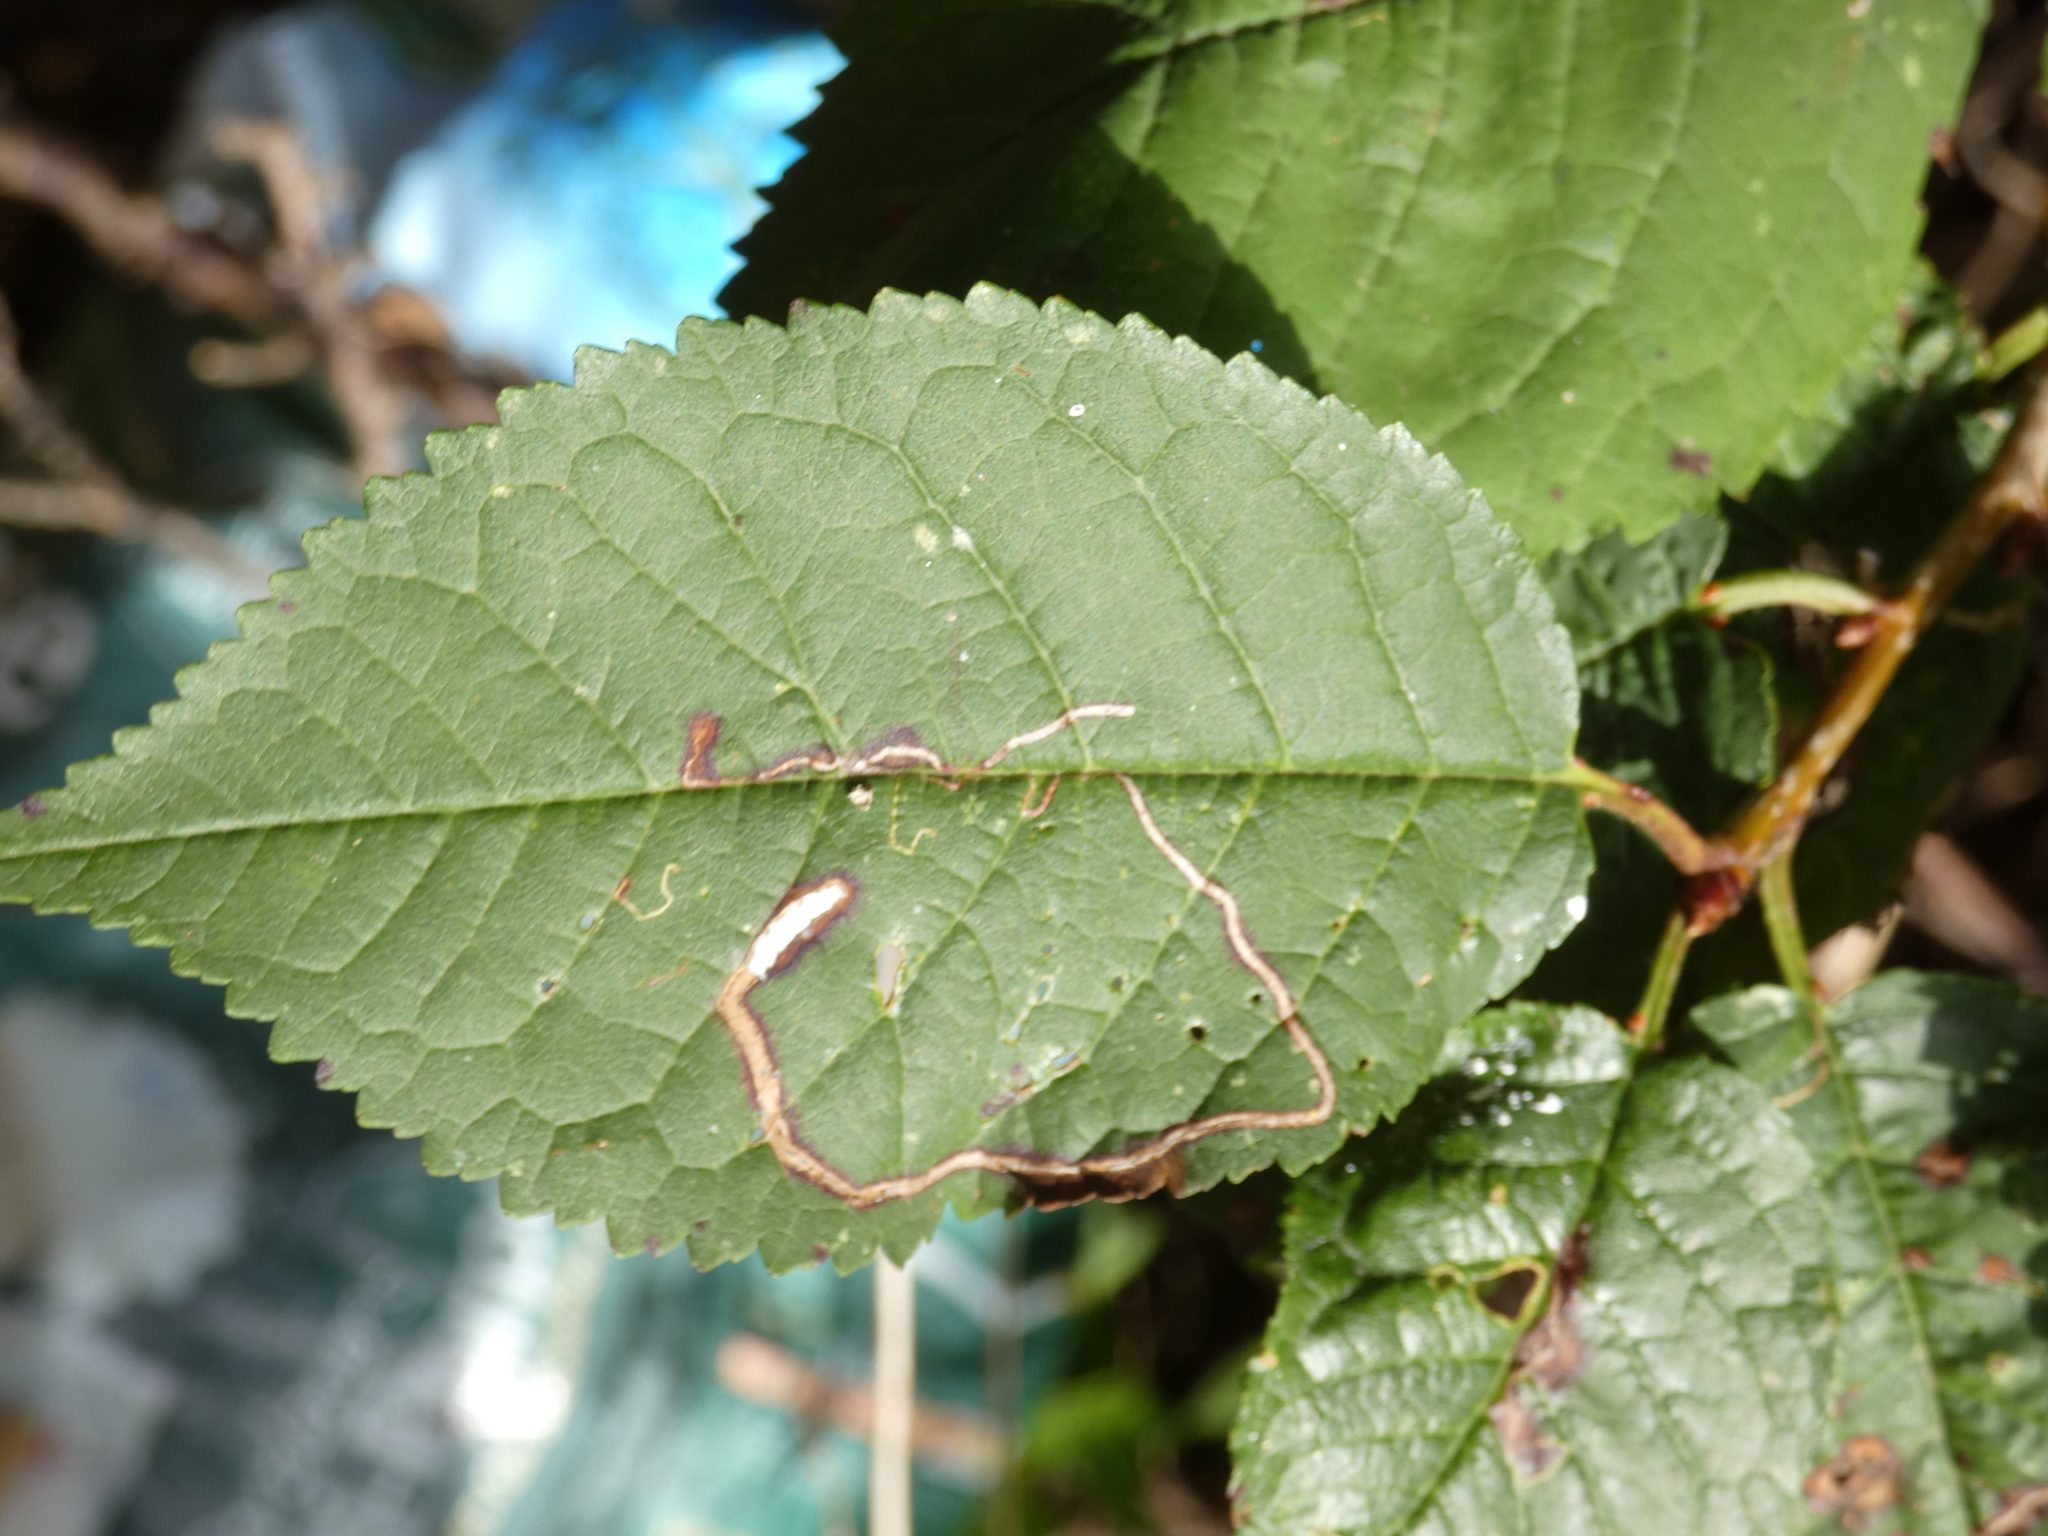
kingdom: Animalia
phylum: Arthropoda
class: Insecta
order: Lepidoptera
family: Lyonetiidae
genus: Lyonetia
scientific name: Lyonetia clerkella
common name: Apple leaf miner
